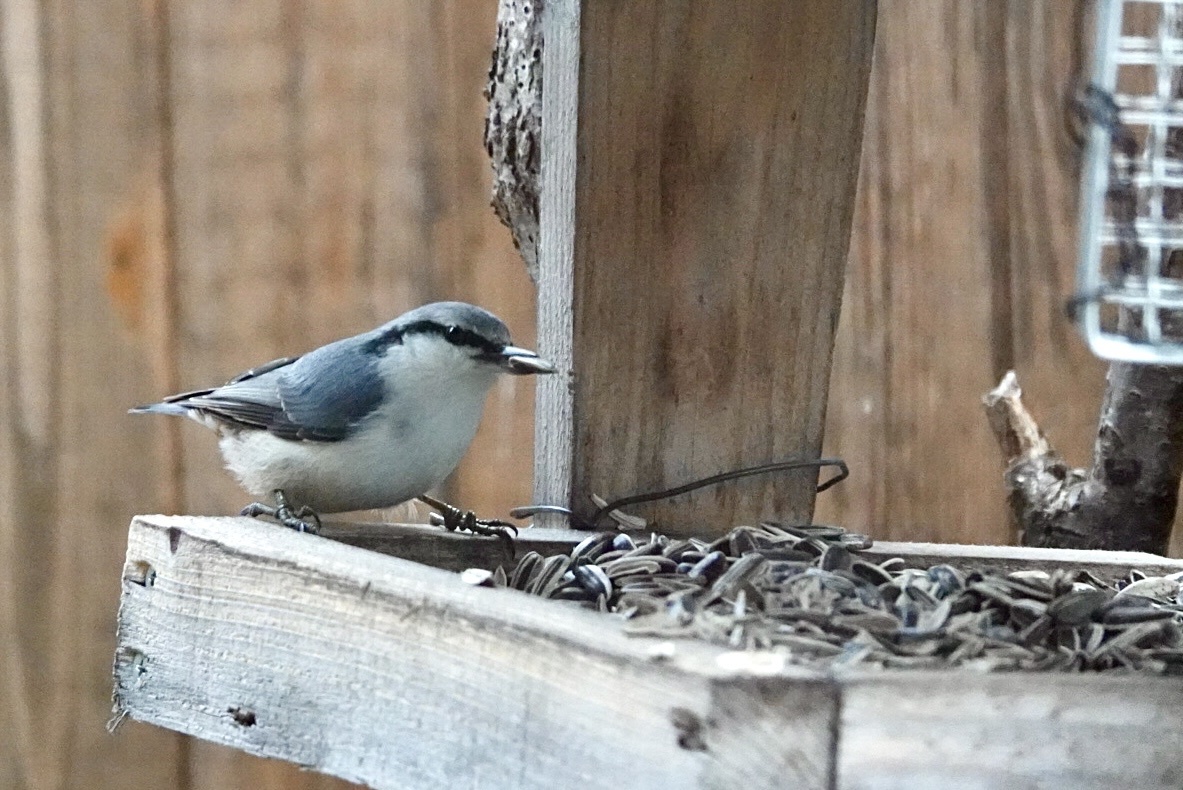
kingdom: Animalia
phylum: Chordata
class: Aves
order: Passeriformes
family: Sittidae
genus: Sitta
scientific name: Sitta europaea
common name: Eurasian nuthatch
